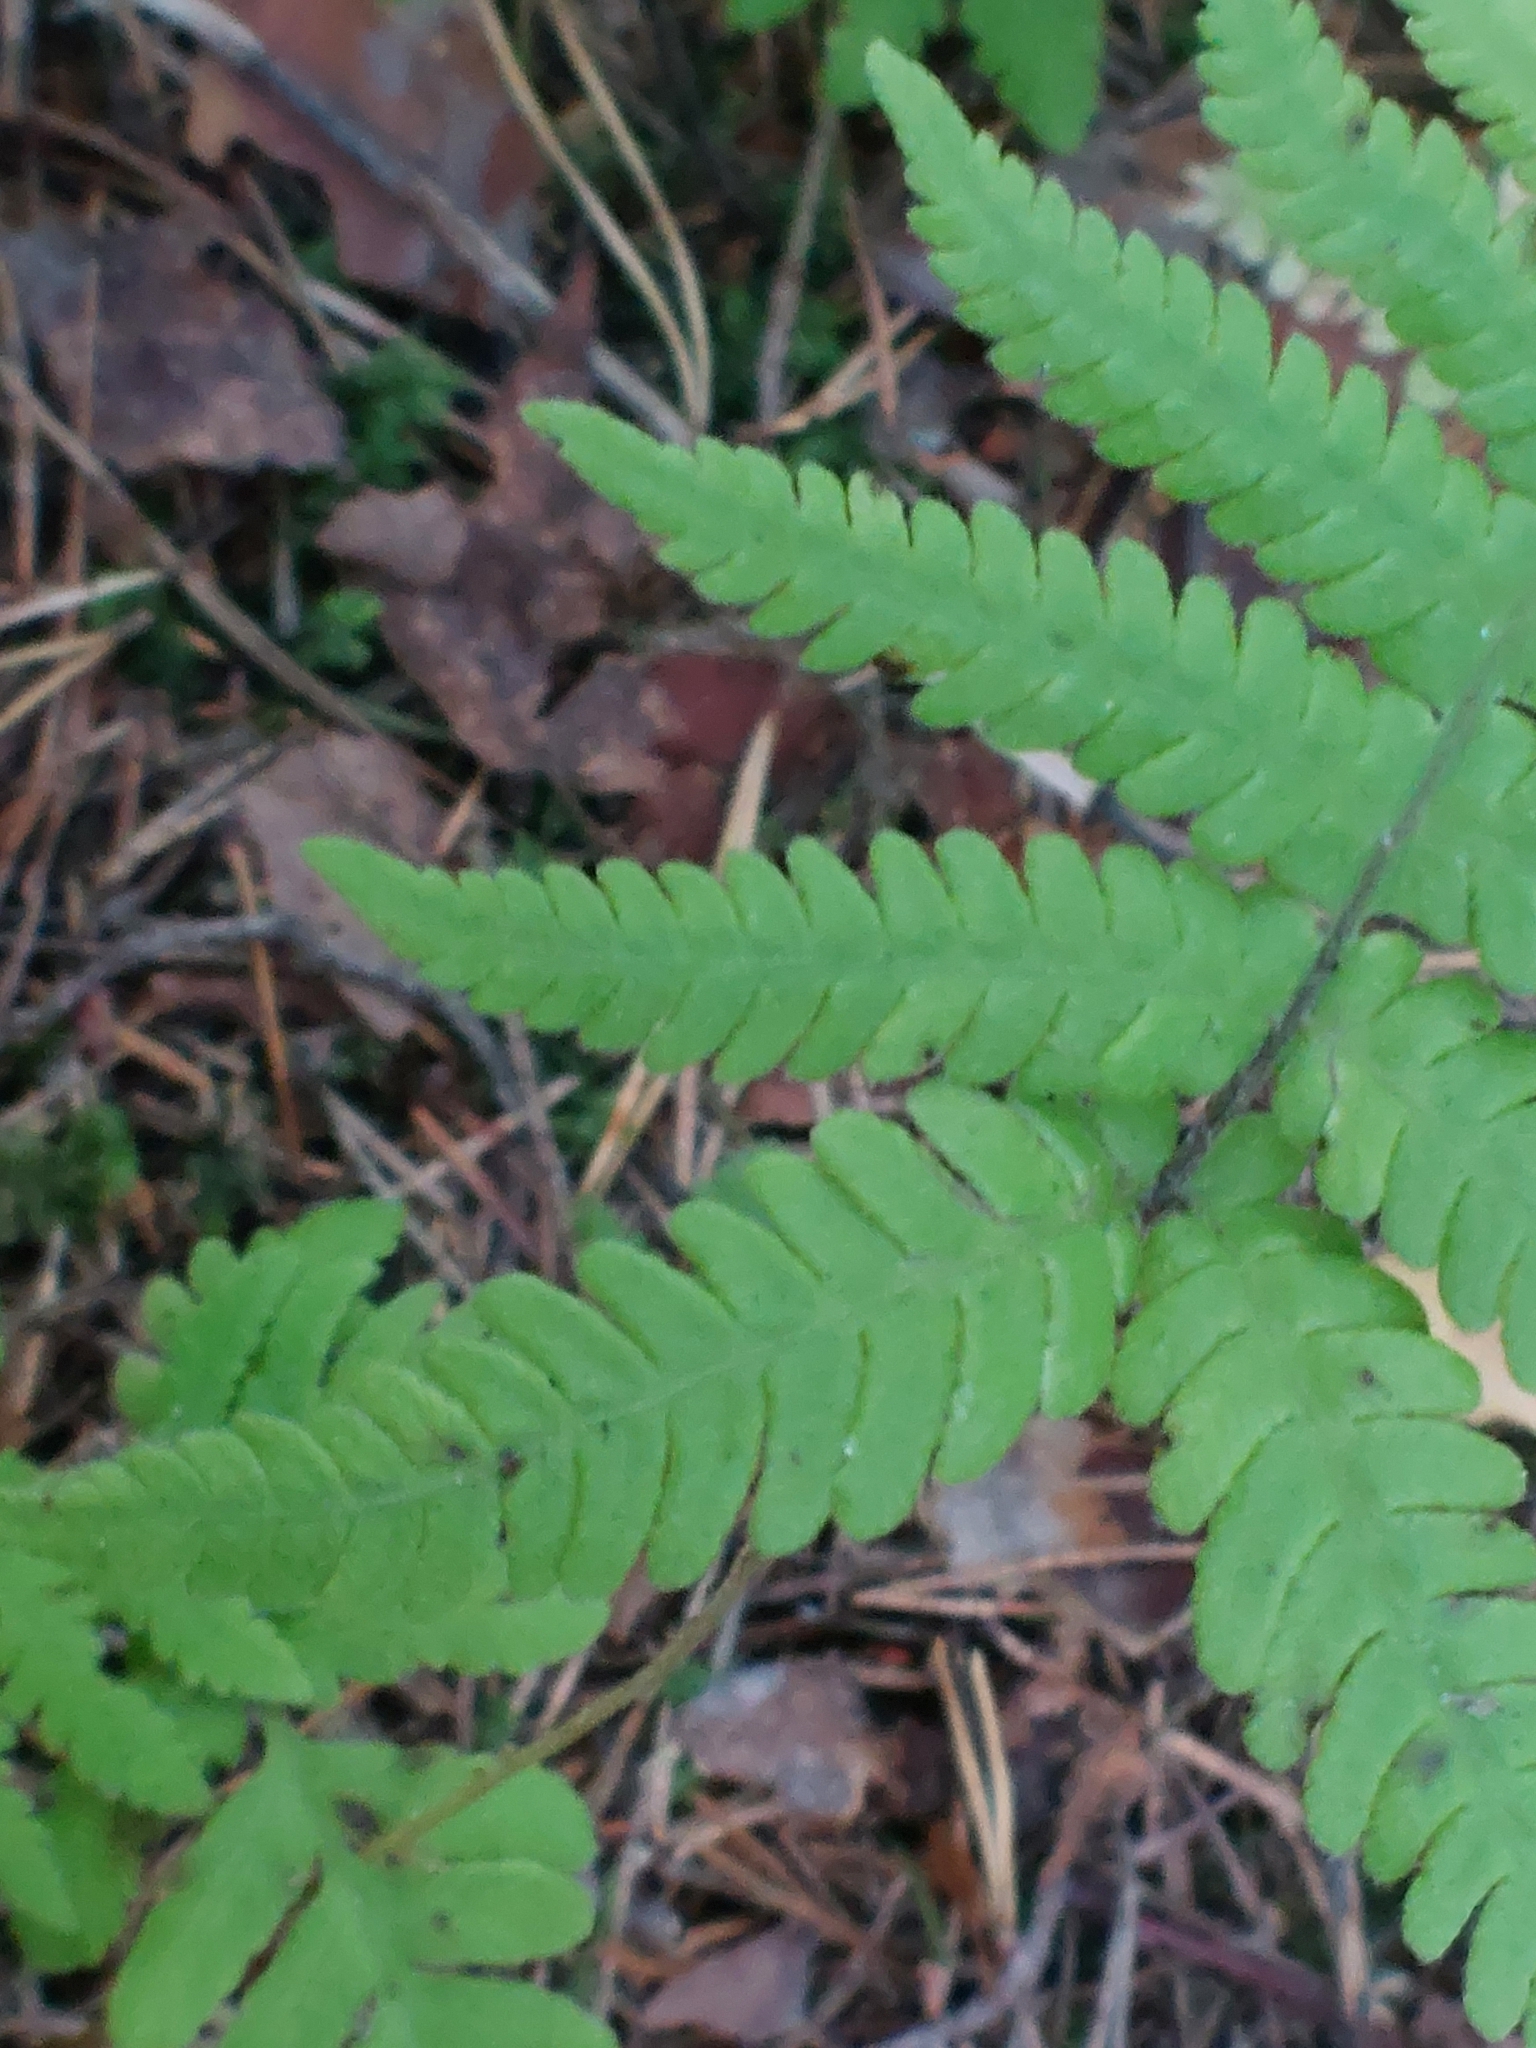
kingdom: Plantae
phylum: Tracheophyta
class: Polypodiopsida
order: Polypodiales
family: Thelypteridaceae
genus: Phegopteris
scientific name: Phegopteris connectilis
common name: Beech fern
